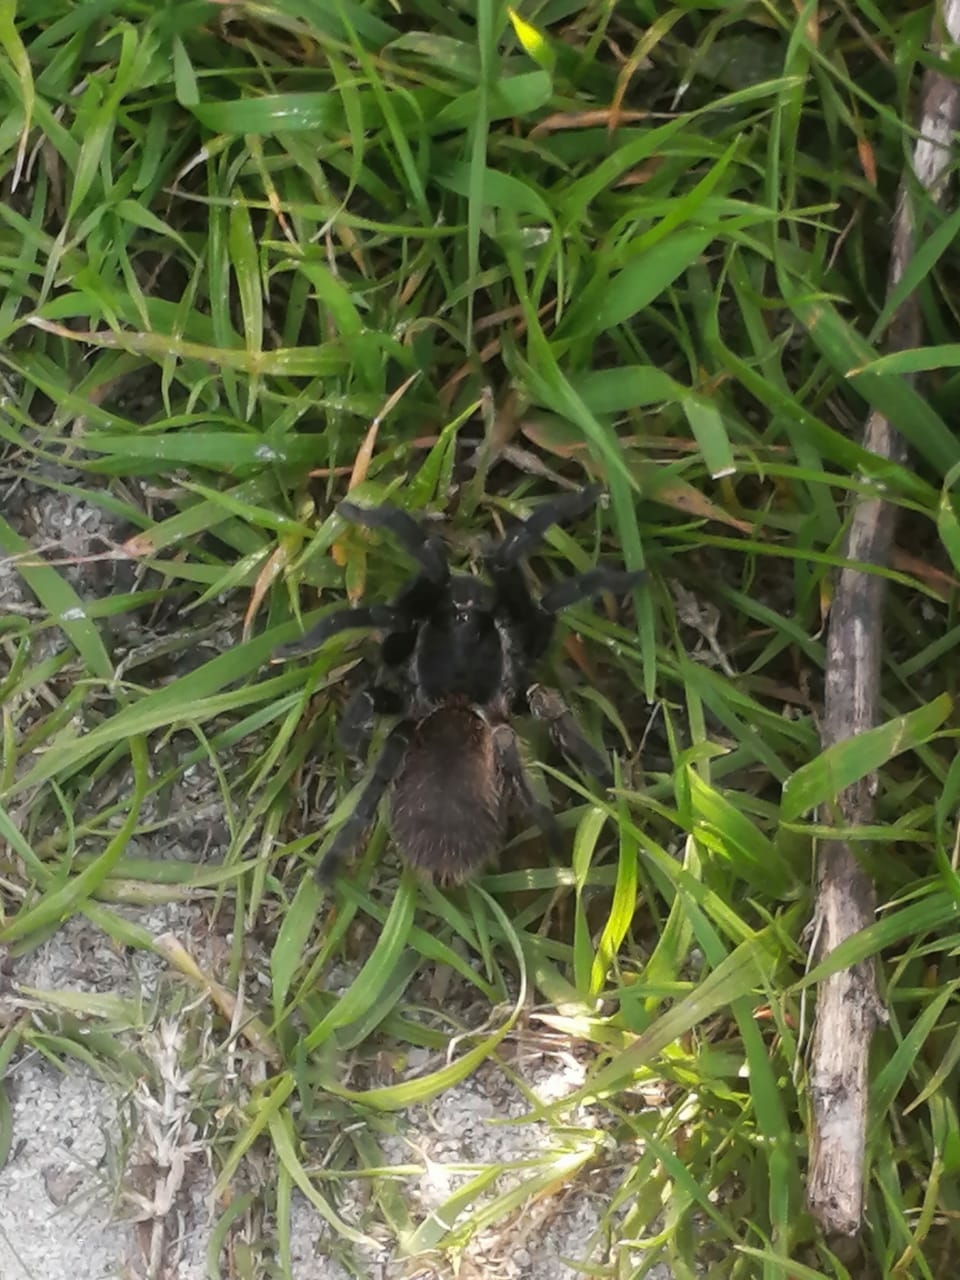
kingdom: Animalia
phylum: Arthropoda
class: Arachnida
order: Araneae
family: Theraphosidae
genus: Harpactira
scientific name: Harpactira atra
